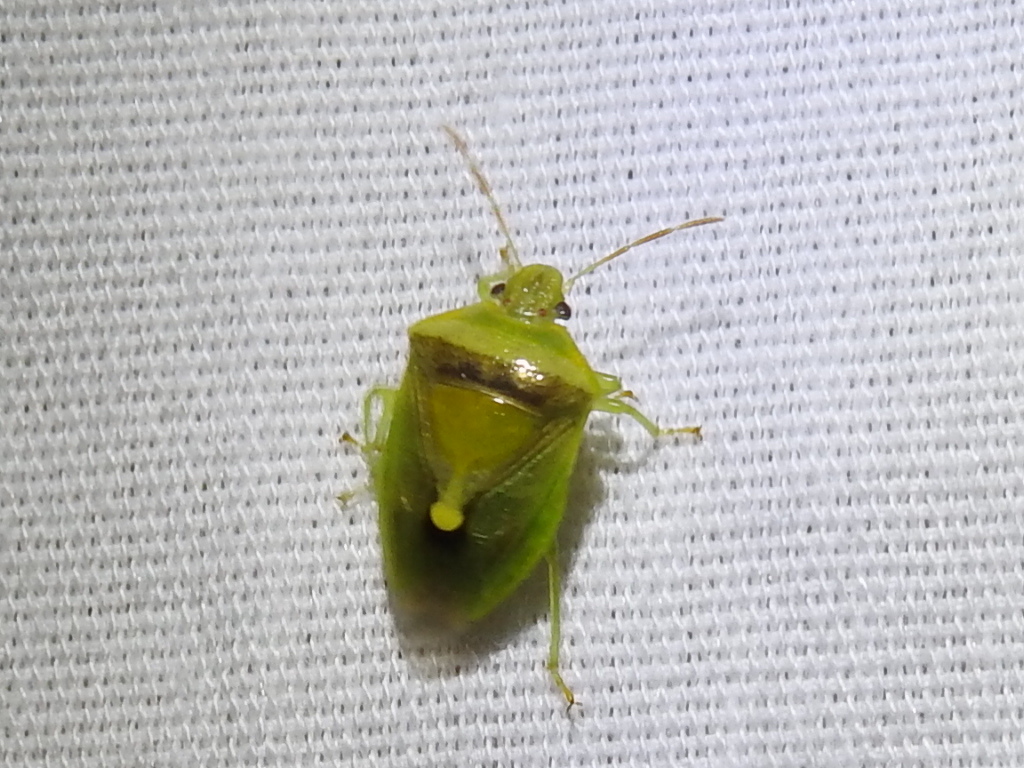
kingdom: Animalia
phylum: Arthropoda
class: Insecta
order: Hemiptera
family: Pentatomidae
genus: Banasa
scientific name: Banasa dimidiata
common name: Green burgundy stink bug
